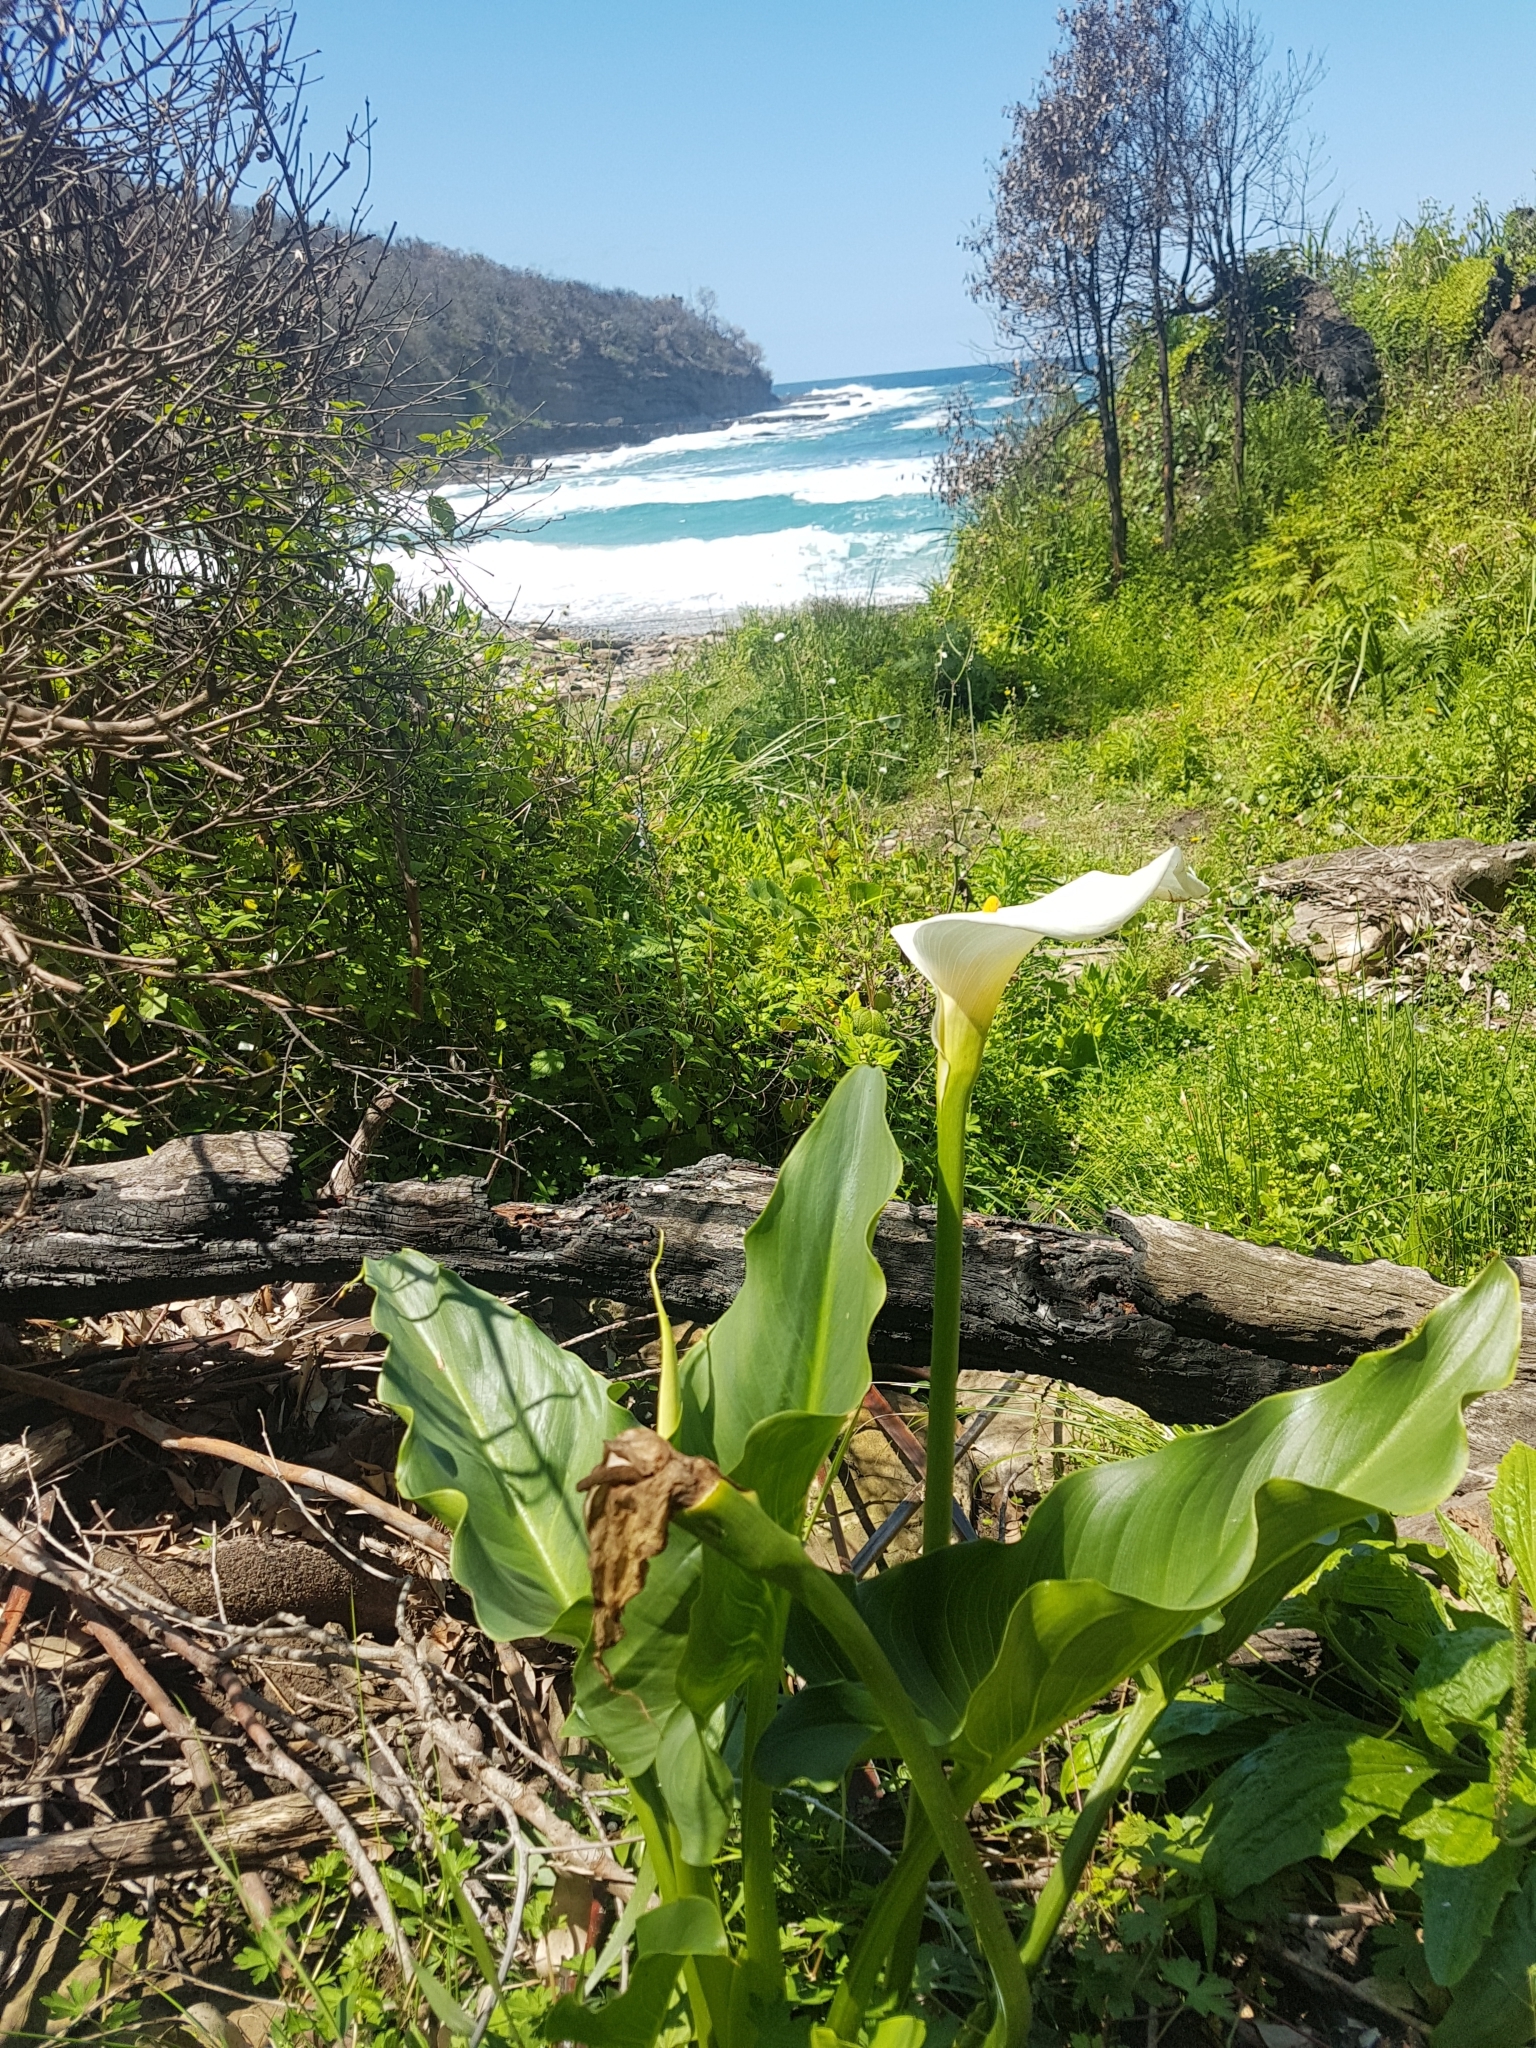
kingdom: Plantae
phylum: Tracheophyta
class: Liliopsida
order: Alismatales
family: Araceae
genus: Zantedeschia
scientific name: Zantedeschia aethiopica
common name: Altar-lily
